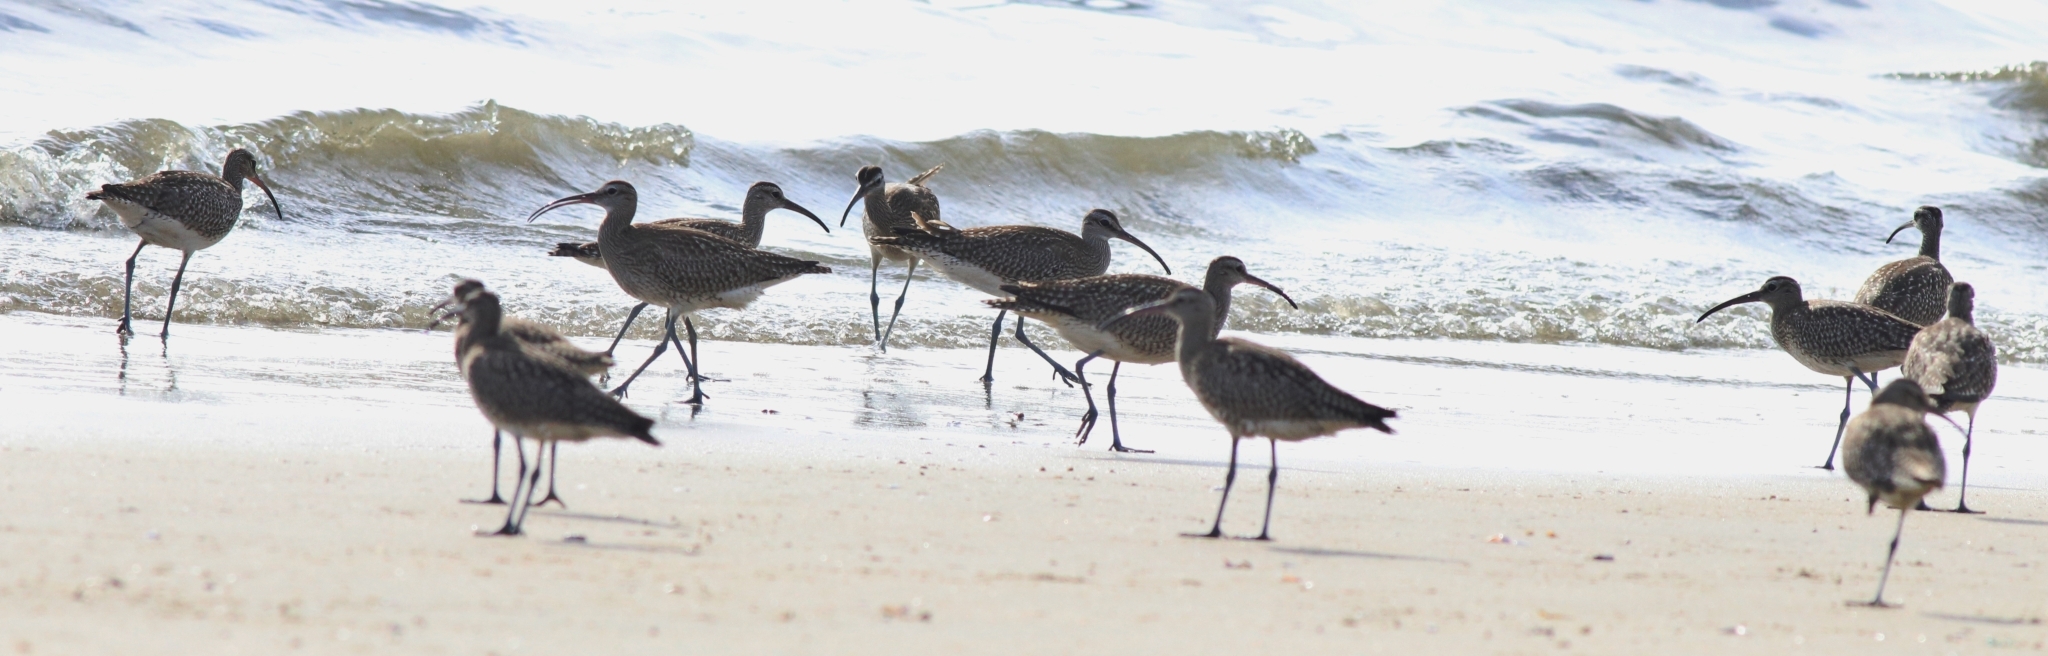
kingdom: Animalia
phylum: Chordata
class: Aves
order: Charadriiformes
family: Scolopacidae
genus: Numenius
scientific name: Numenius phaeopus
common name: Whimbrel
